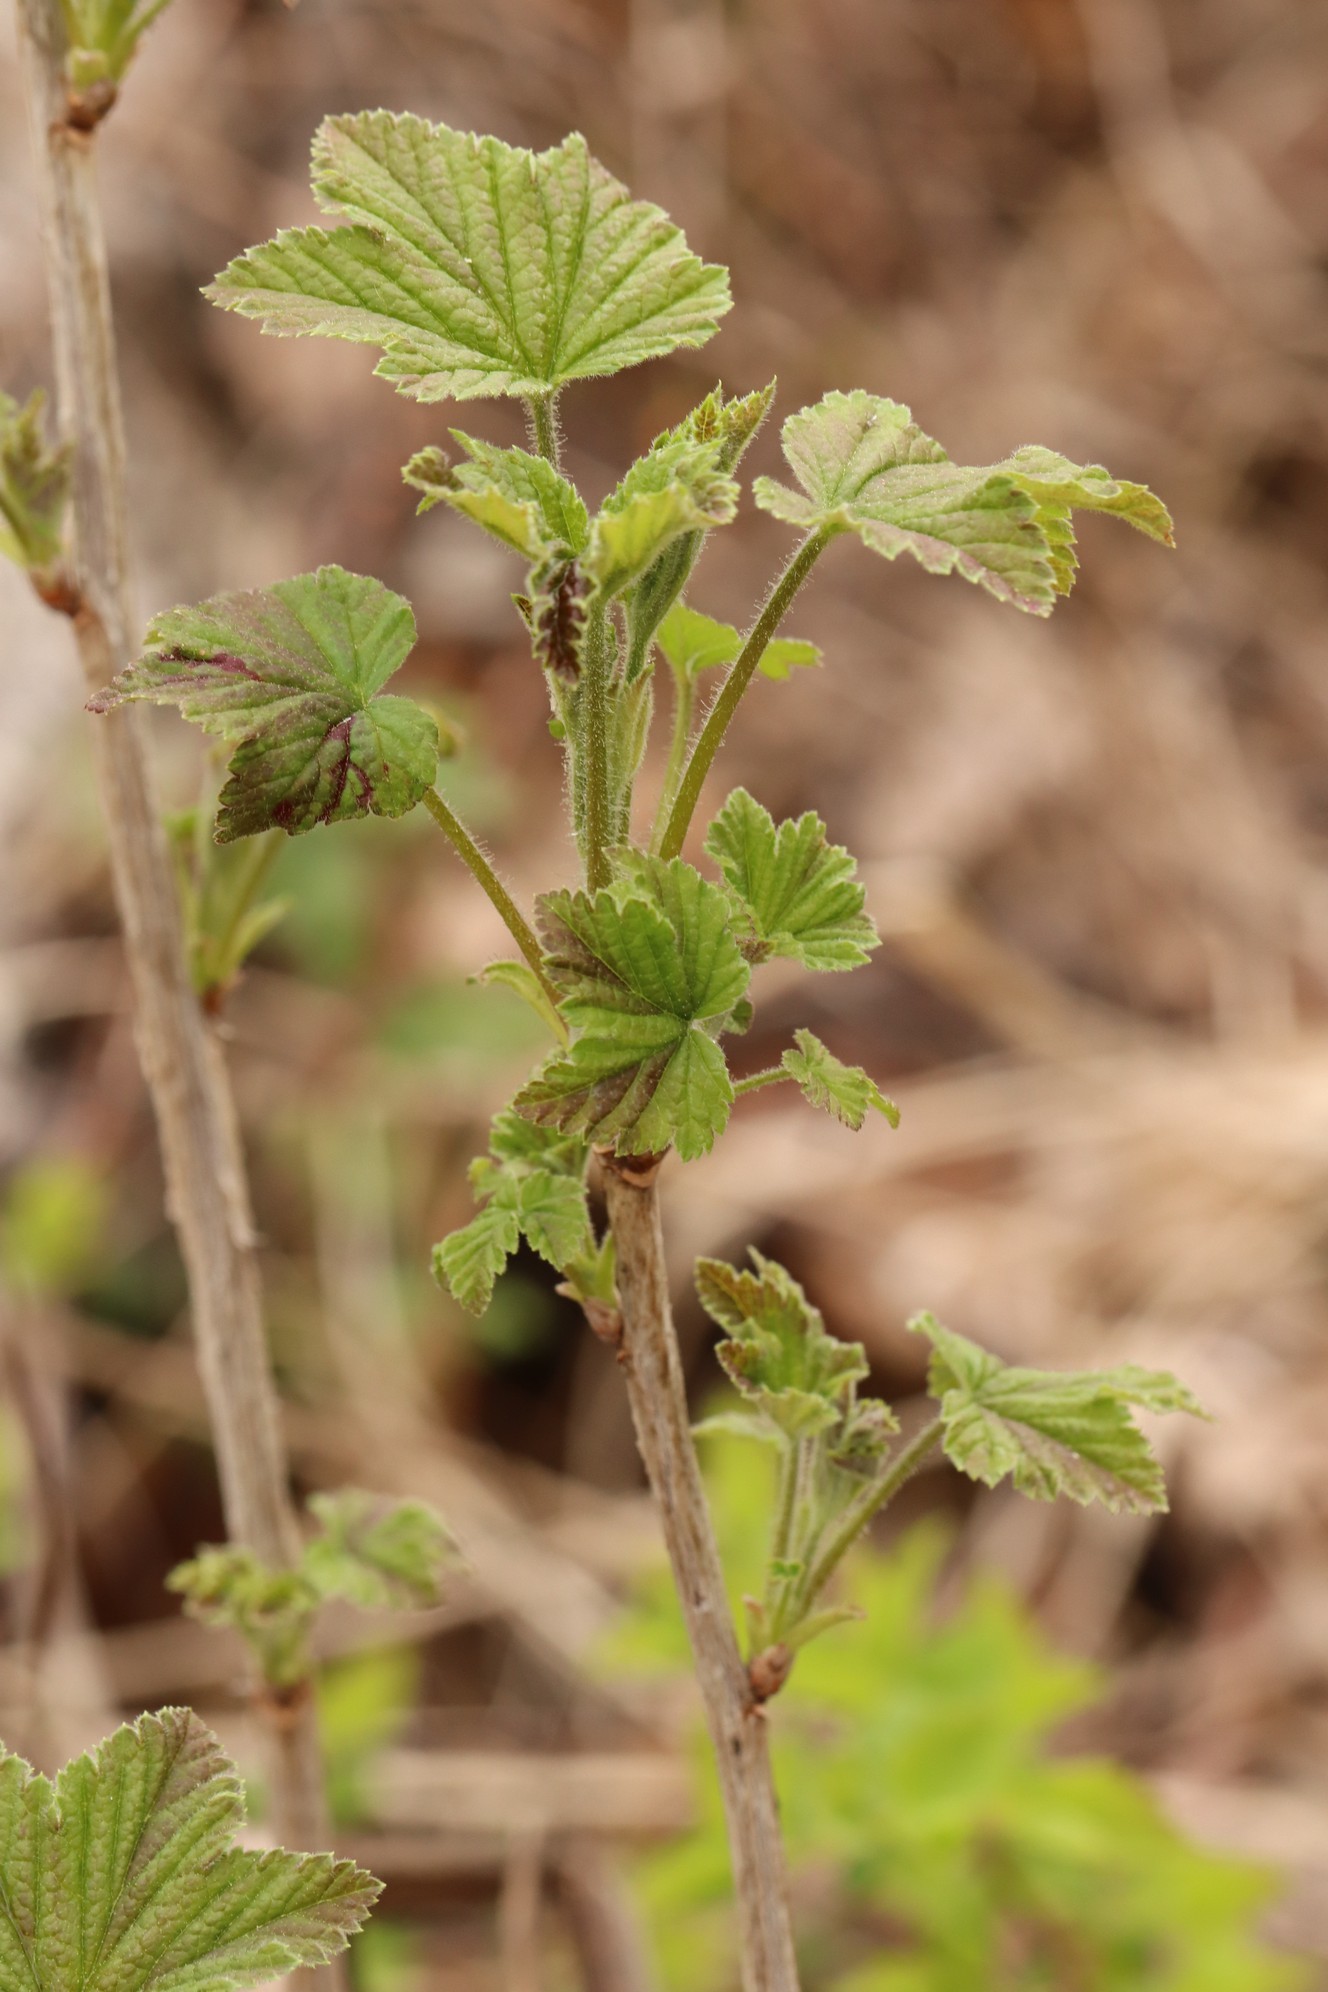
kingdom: Plantae
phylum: Tracheophyta
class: Magnoliopsida
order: Saxifragales
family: Grossulariaceae
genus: Ribes
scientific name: Ribes spicatum
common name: Downy currant
